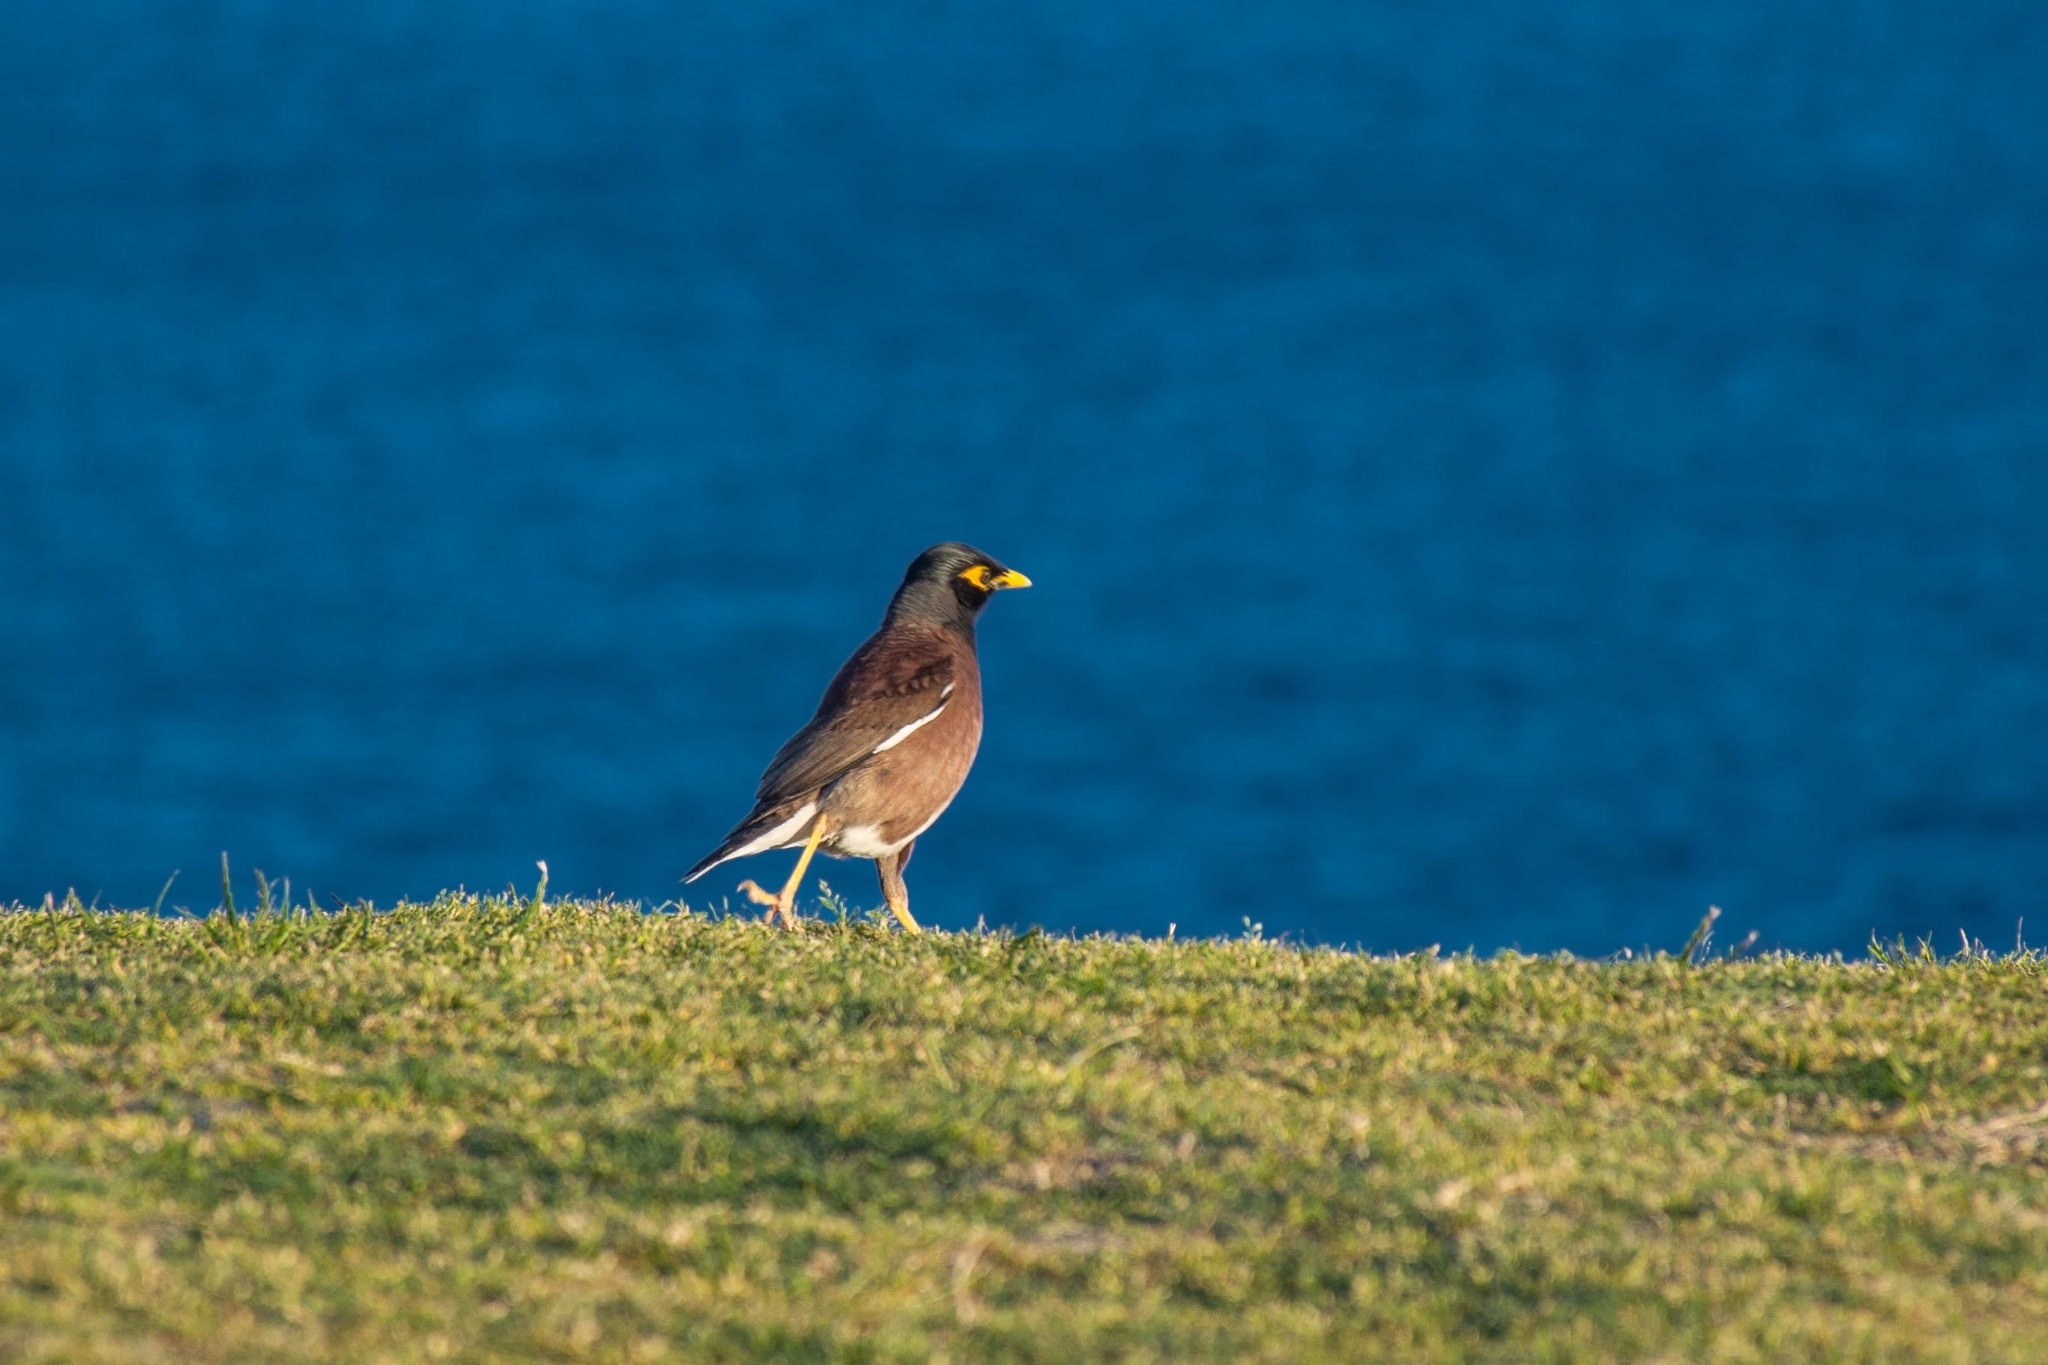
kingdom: Animalia
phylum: Chordata
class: Aves
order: Passeriformes
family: Sturnidae
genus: Acridotheres
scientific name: Acridotheres tristis
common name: Common myna
